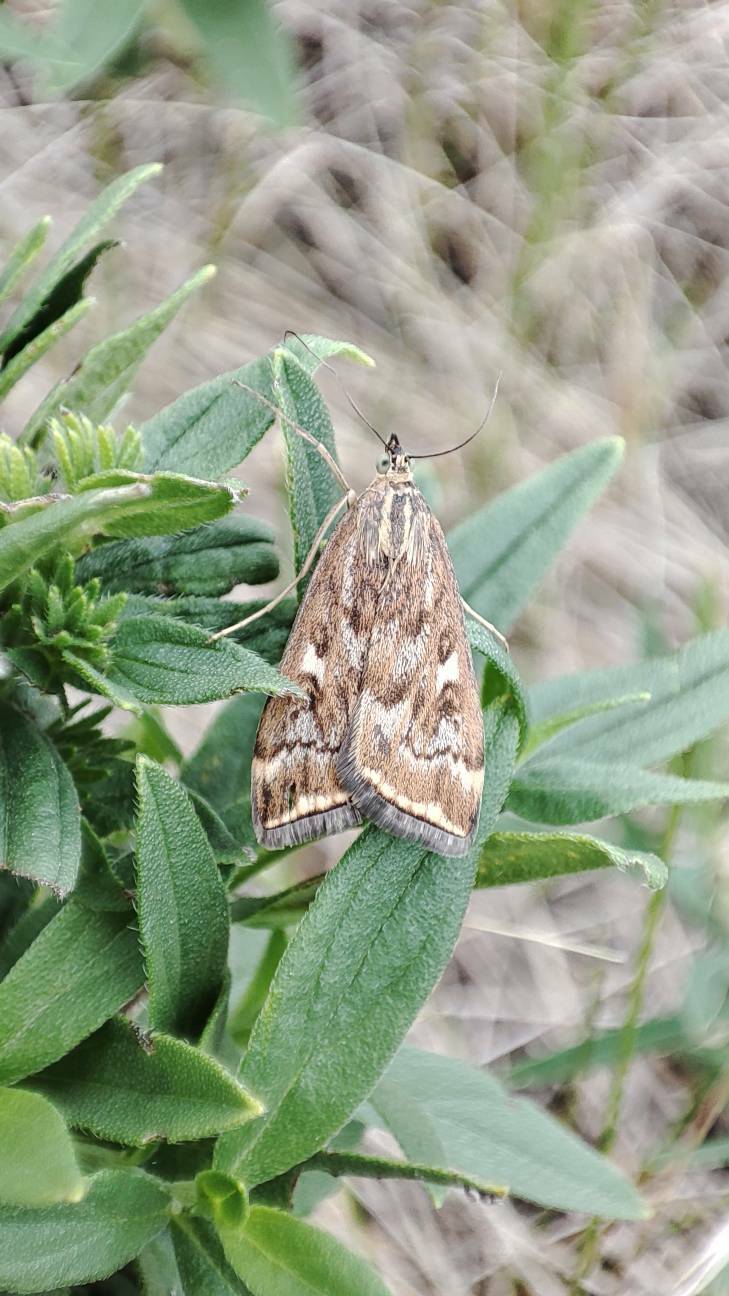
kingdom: Animalia
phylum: Arthropoda
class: Insecta
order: Lepidoptera
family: Crambidae
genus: Loxostege
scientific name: Loxostege sticticalis
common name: Crambid moth
